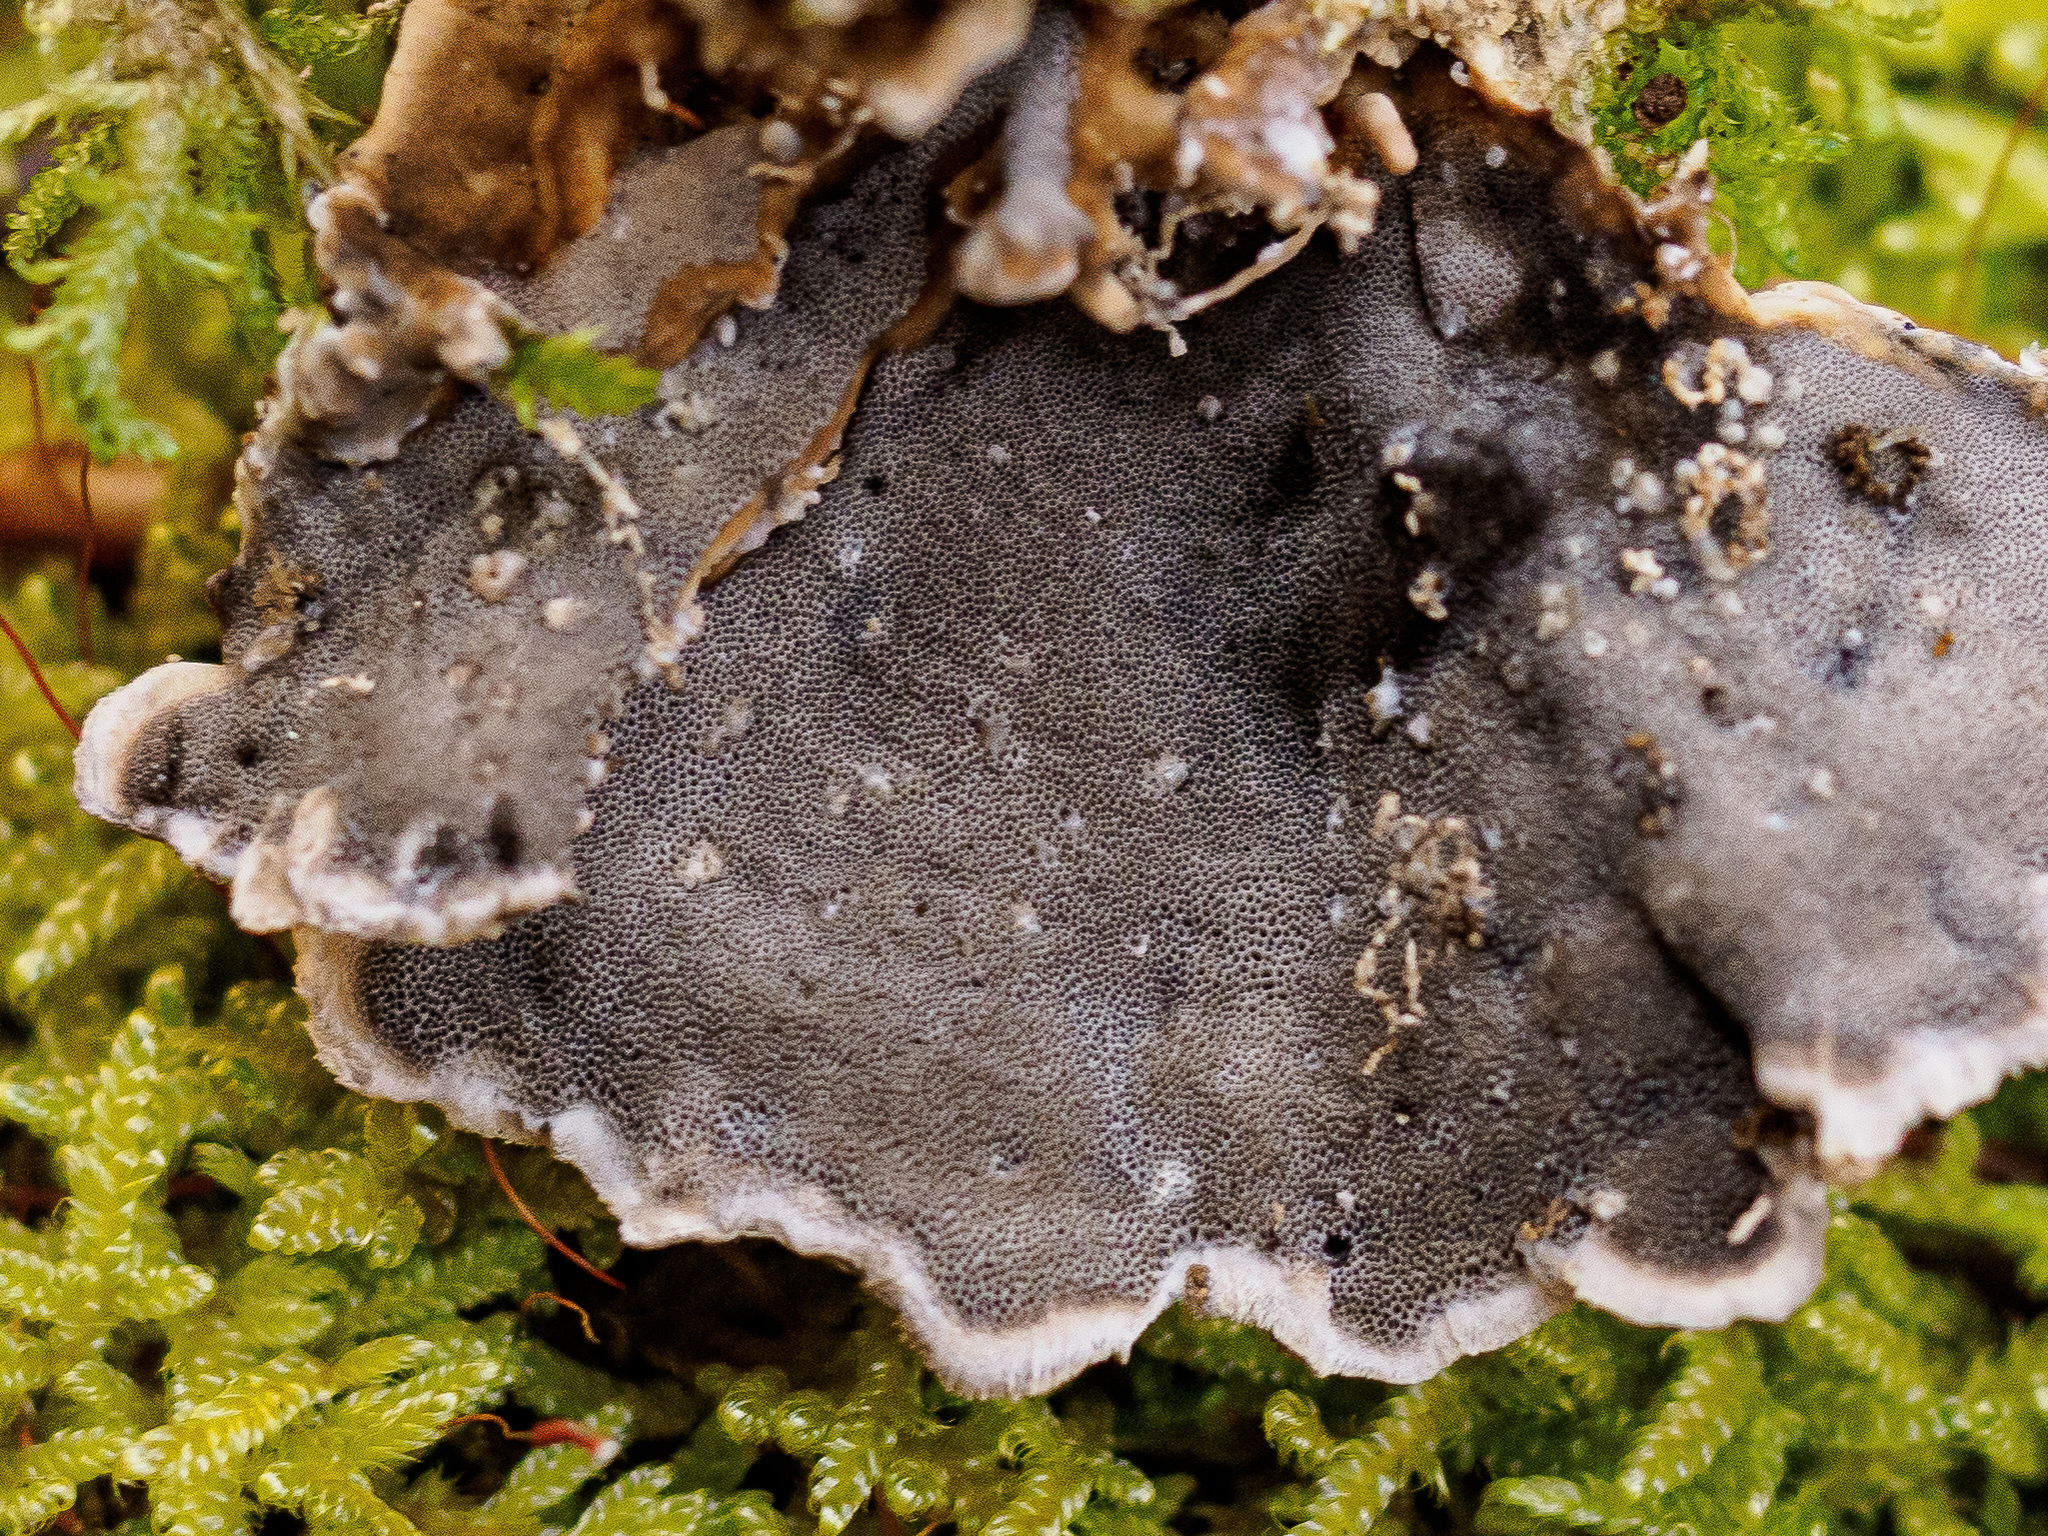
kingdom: Fungi
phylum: Basidiomycota
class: Agaricomycetes
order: Polyporales
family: Phanerochaetaceae
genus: Bjerkandera
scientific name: Bjerkandera adusta
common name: Smoky bracket
